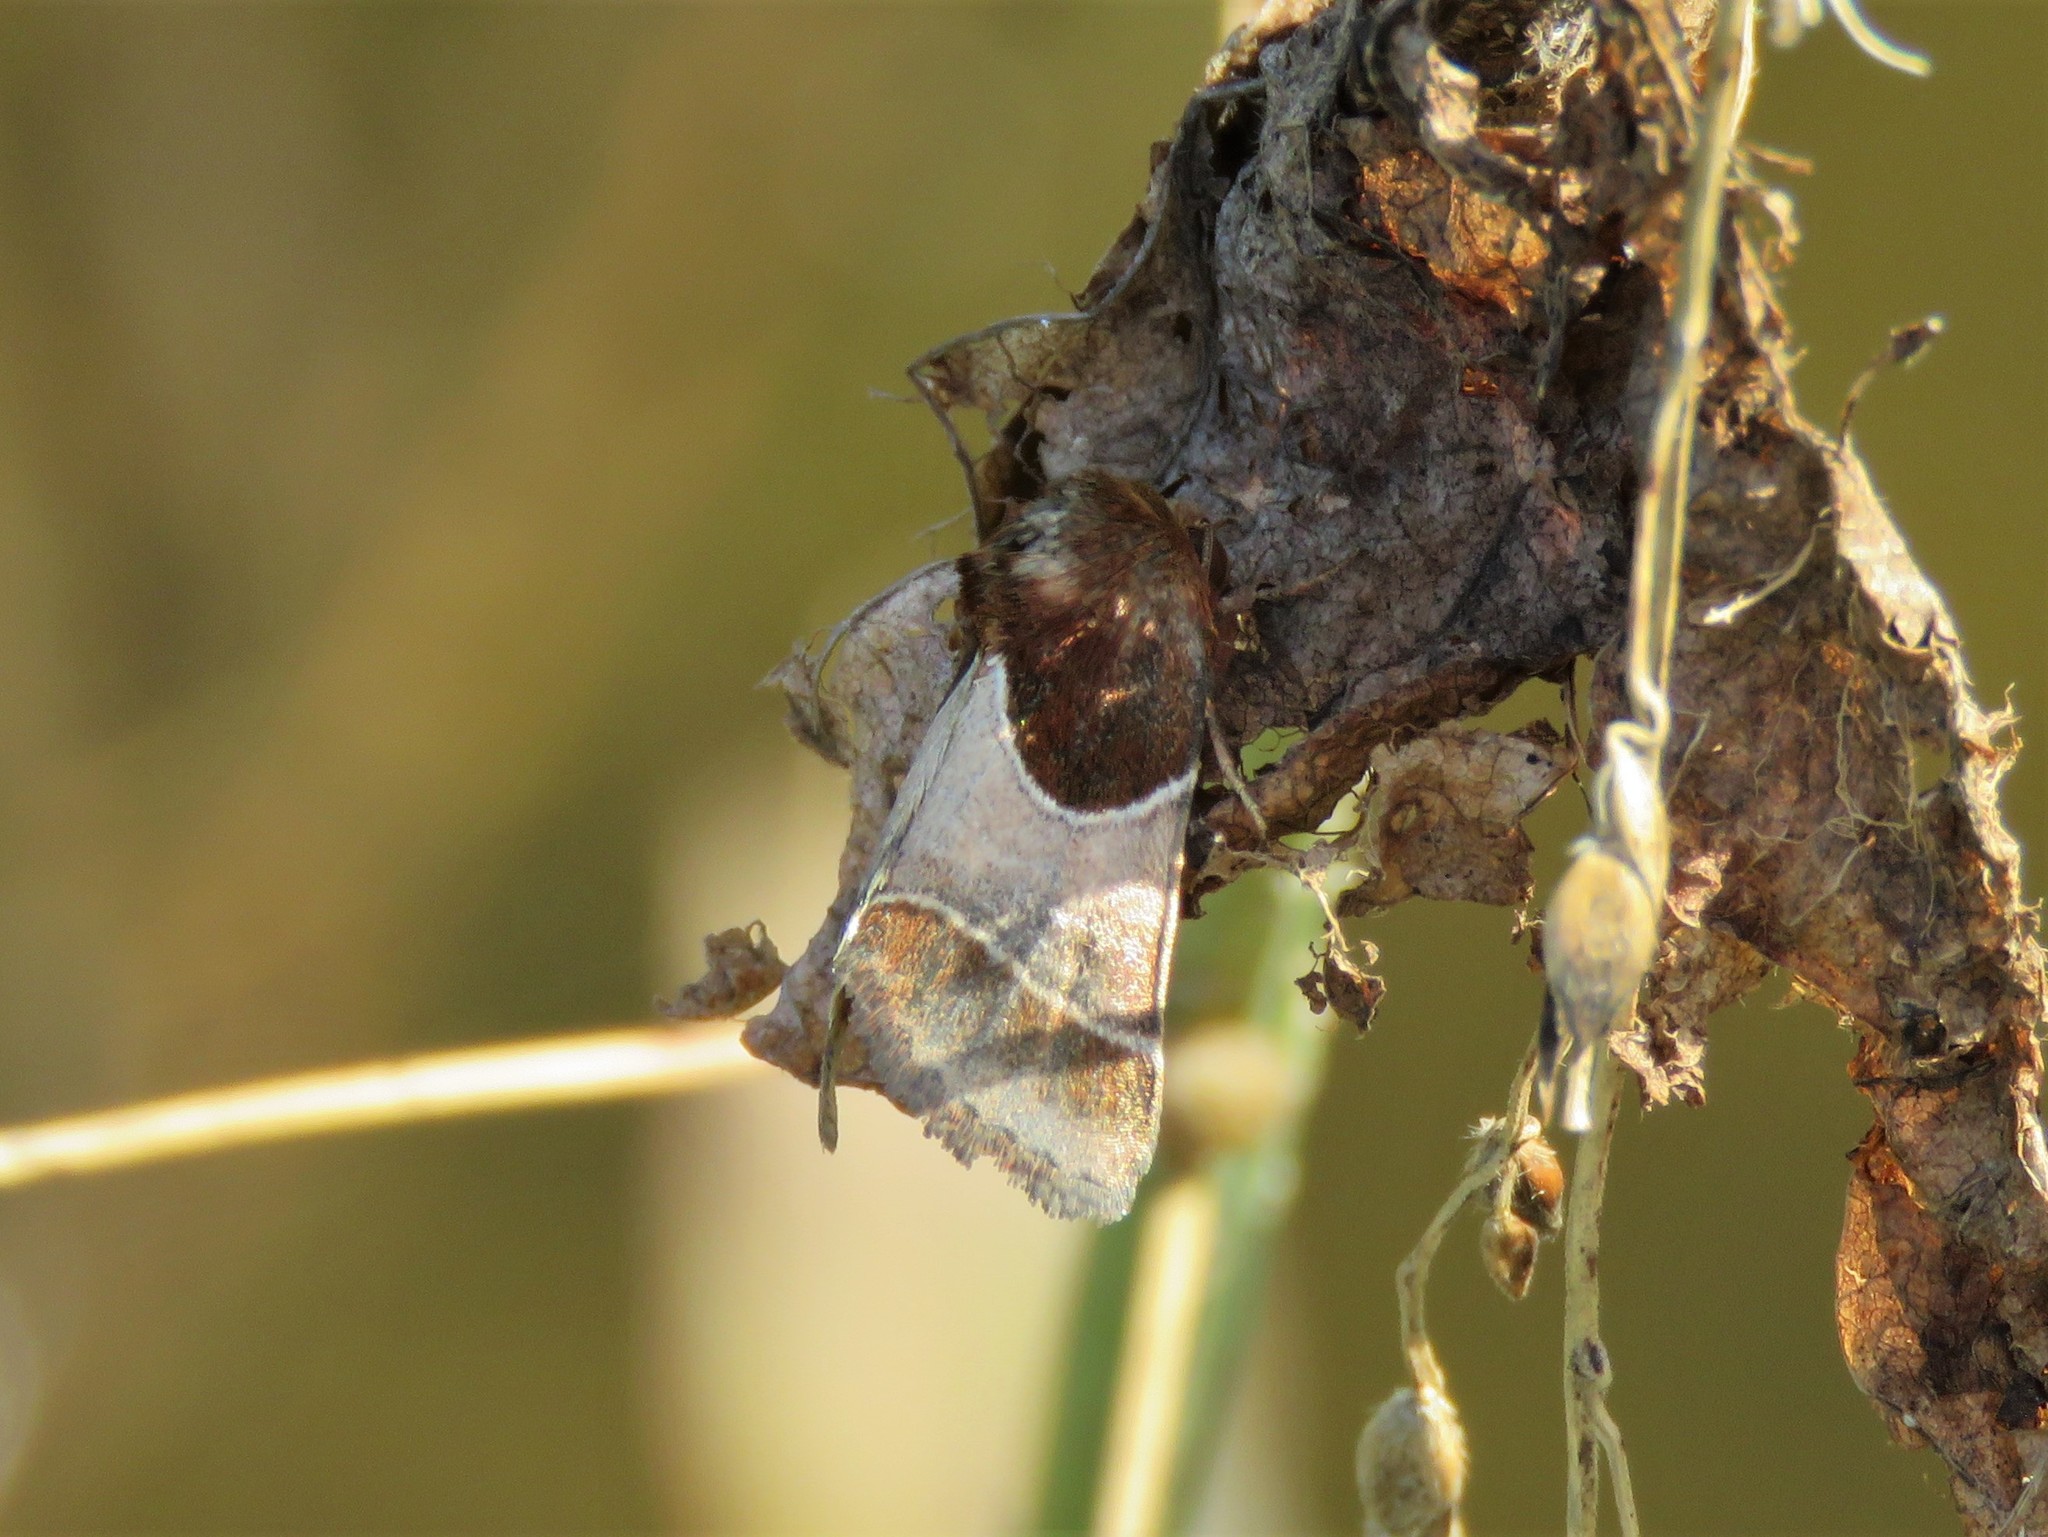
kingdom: Animalia
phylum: Arthropoda
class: Insecta
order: Lepidoptera
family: Noctuidae
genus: Schinia
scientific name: Schinia arcigera
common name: Arcigera flower moth
